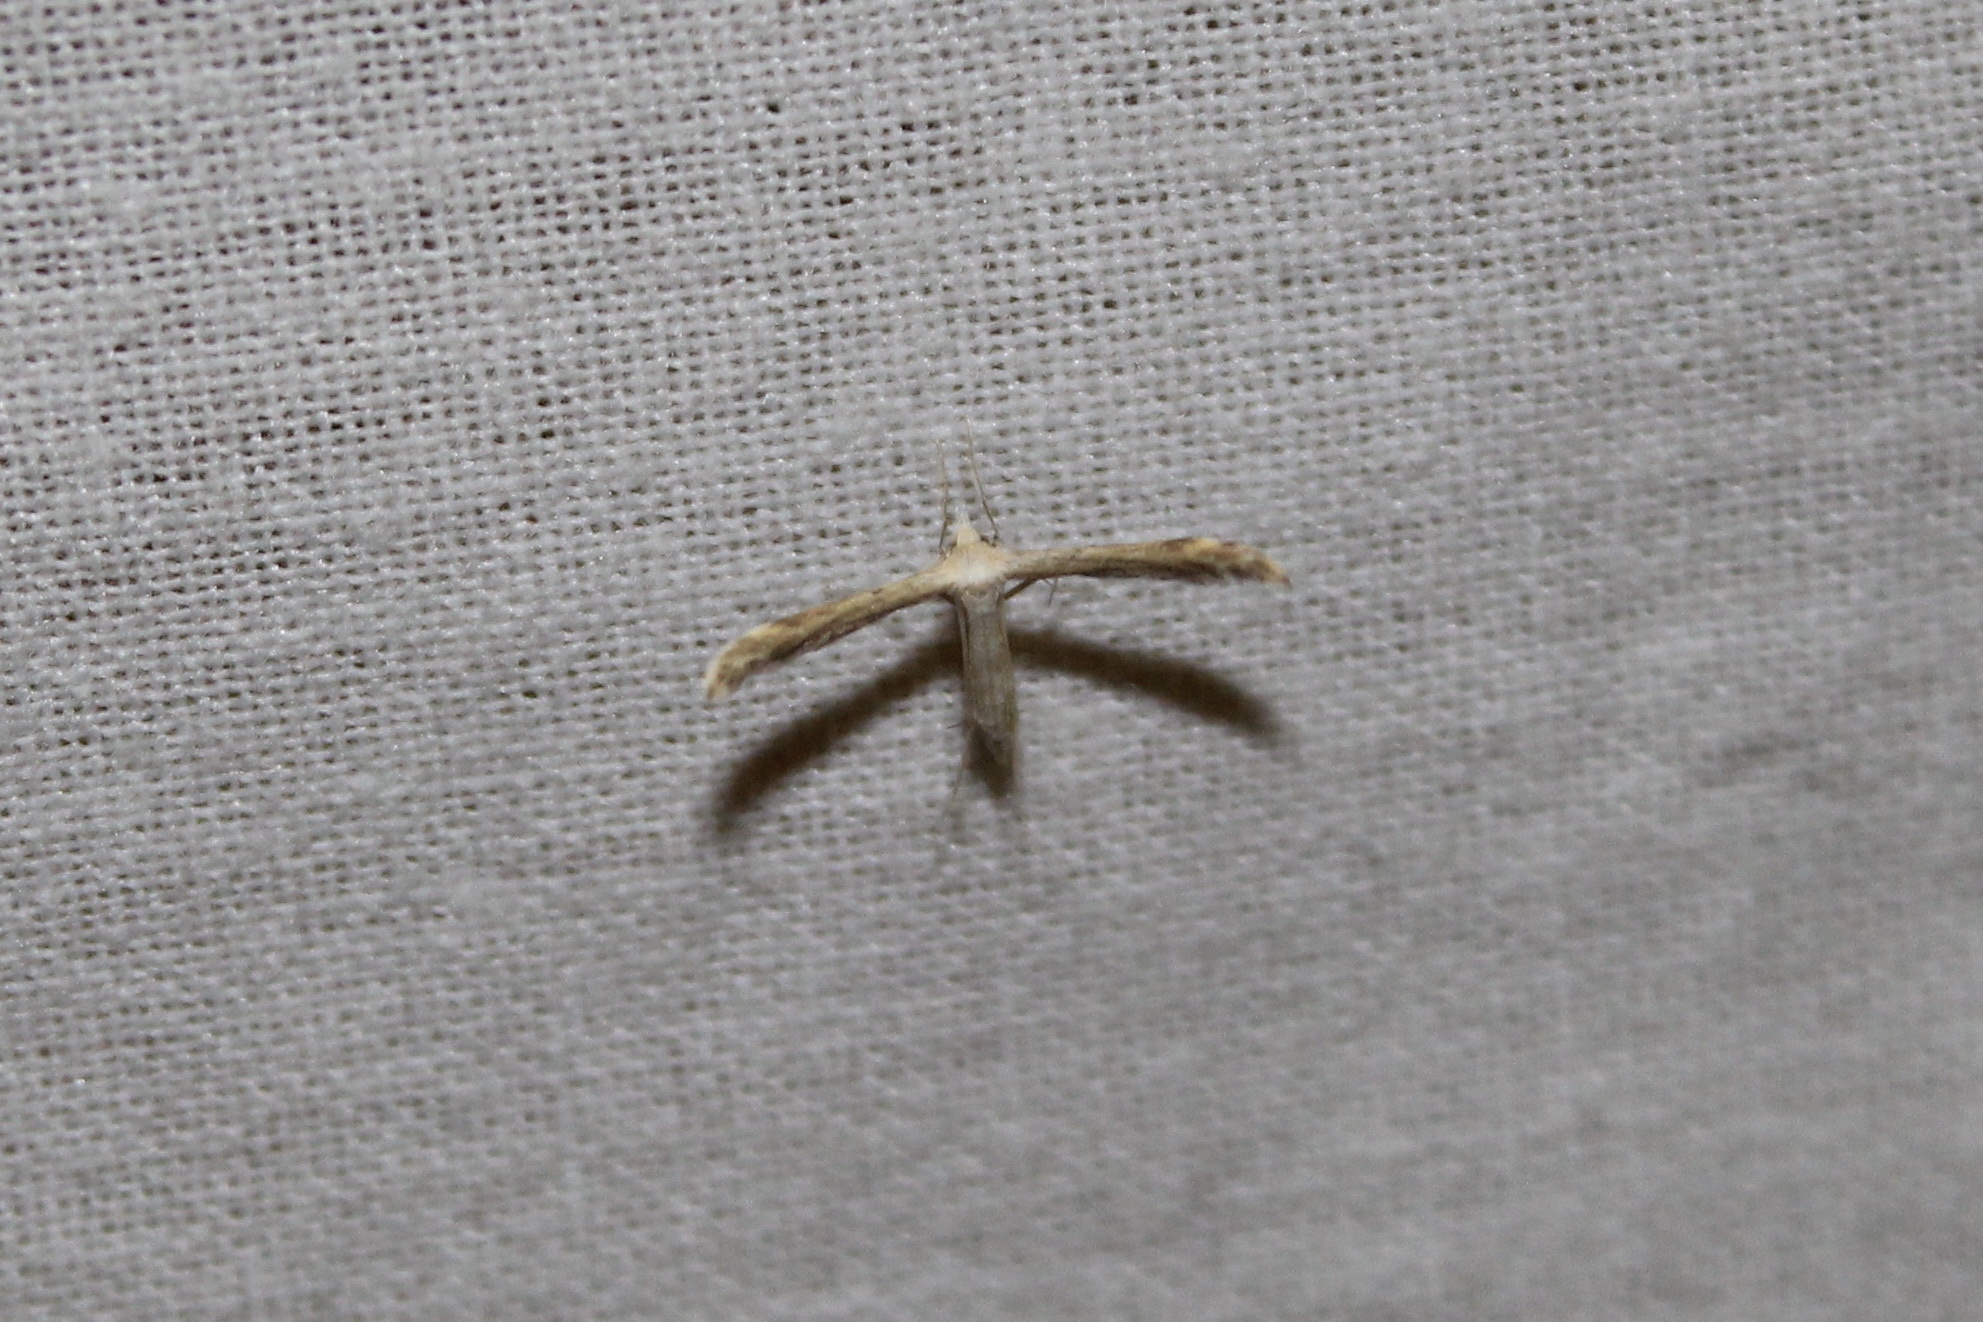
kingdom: Animalia
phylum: Arthropoda
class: Insecta
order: Lepidoptera
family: Pterophoridae
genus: Lioptilodes
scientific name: Lioptilodes albistriolatus
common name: Moth
